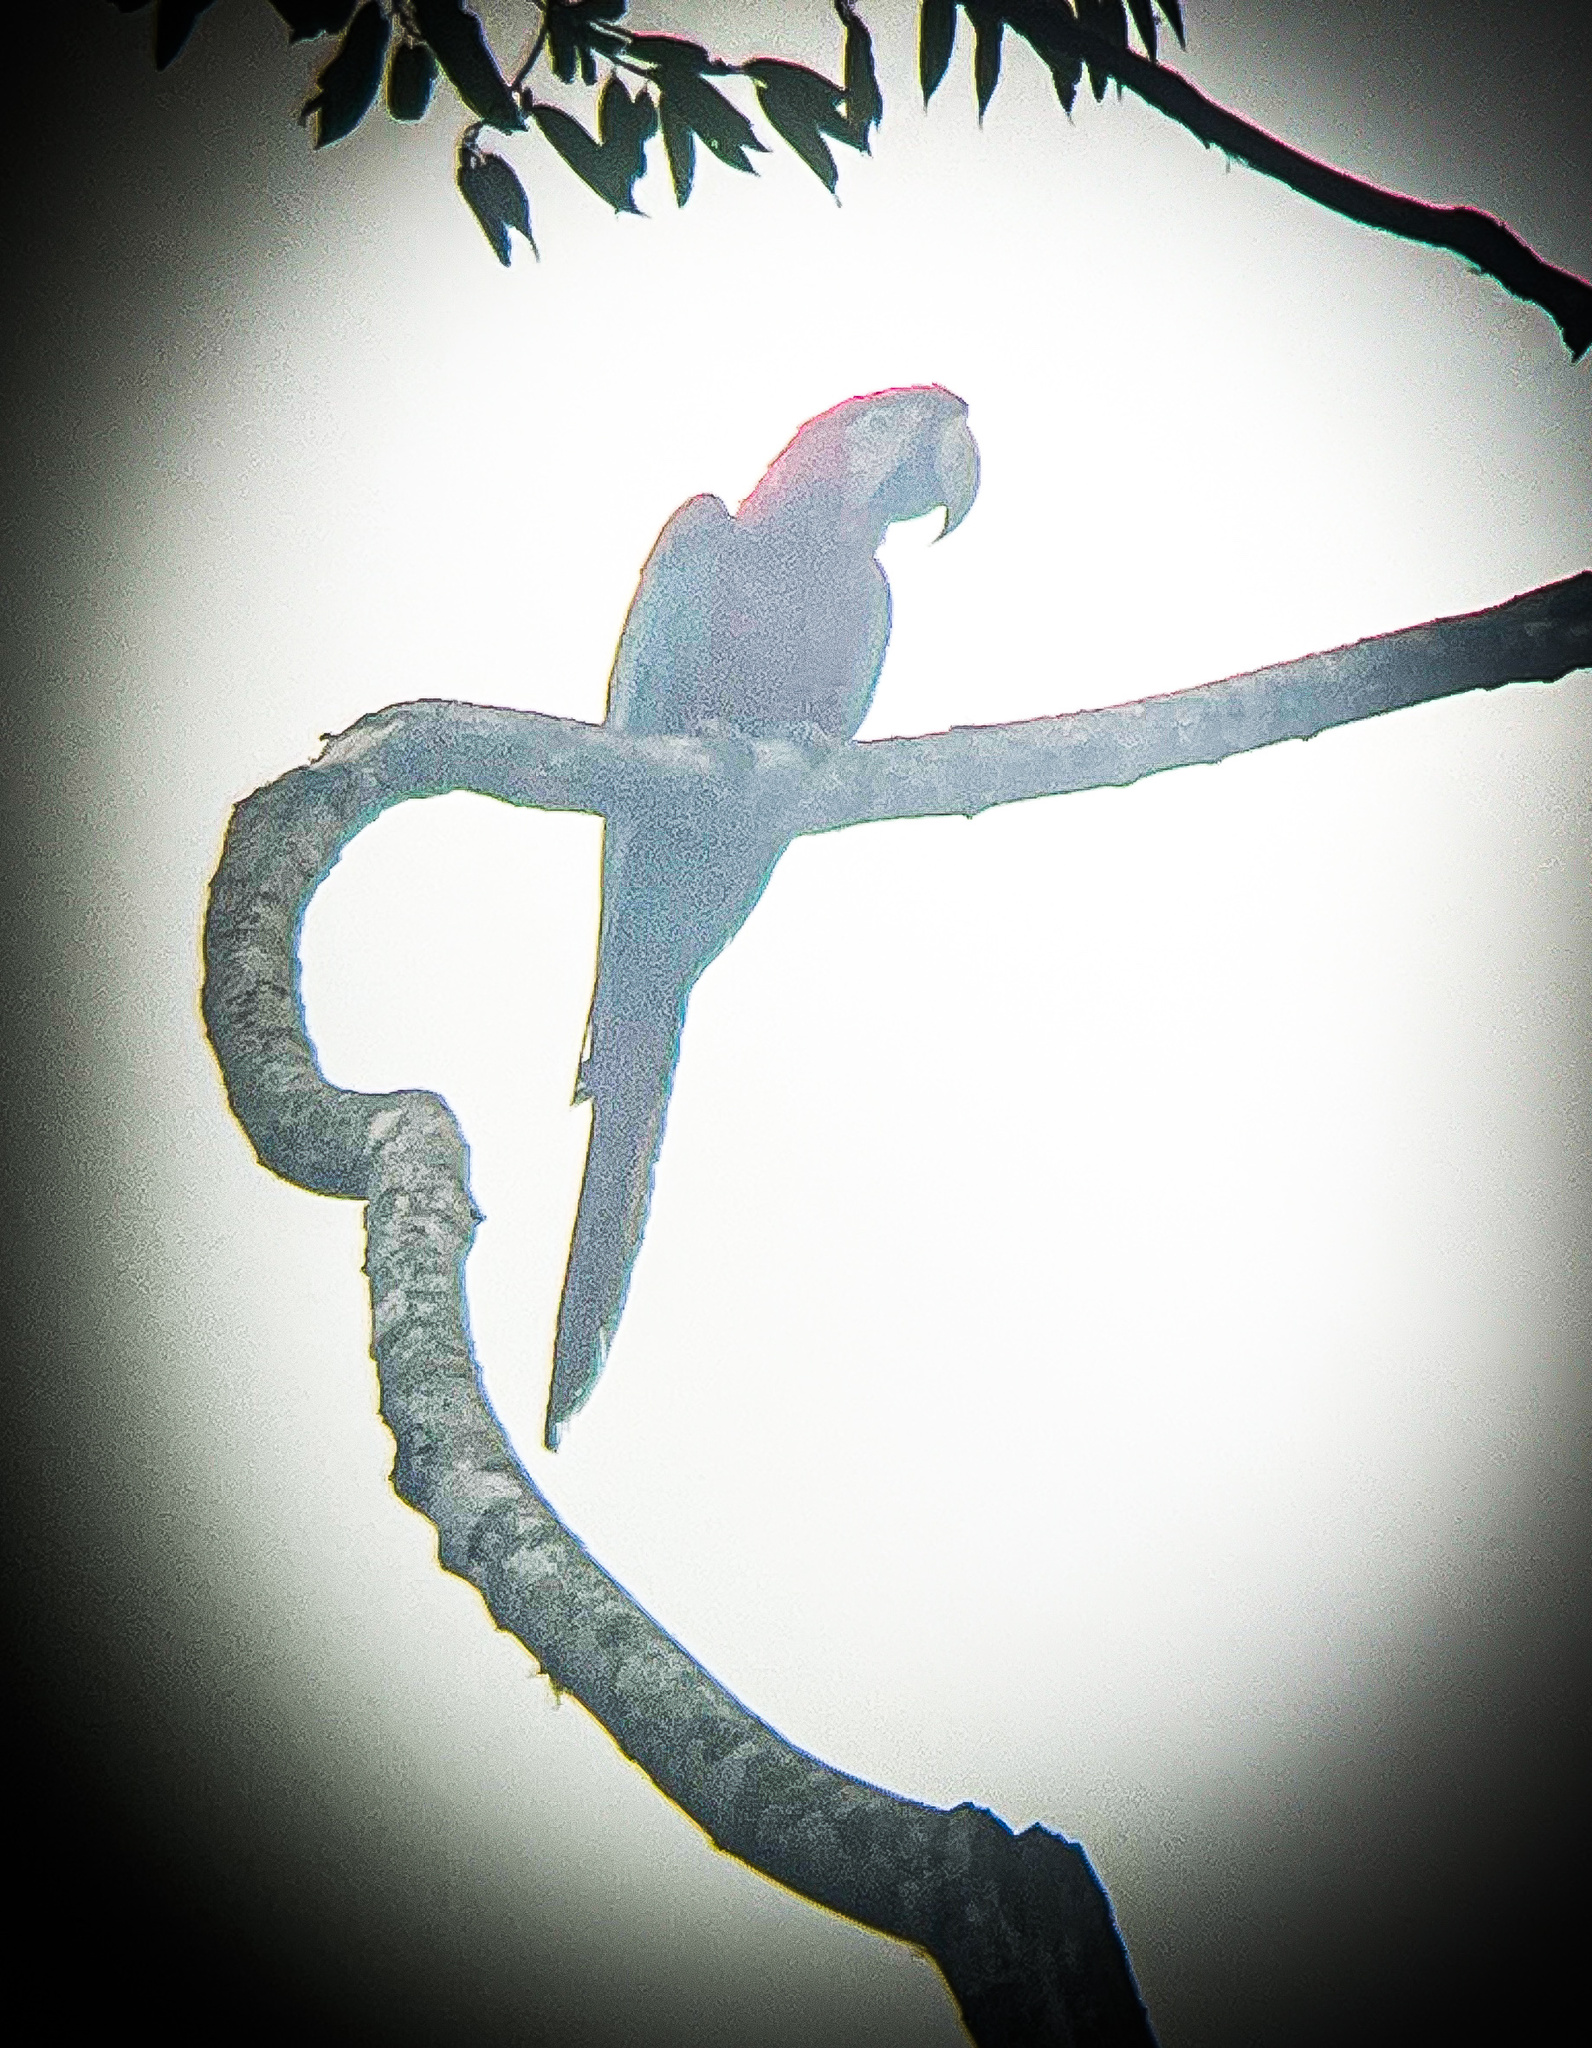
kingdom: Animalia
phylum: Chordata
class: Aves
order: Psittaciformes
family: Psittacidae
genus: Ara
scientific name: Ara chloropterus
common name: Red-and-green macaw
